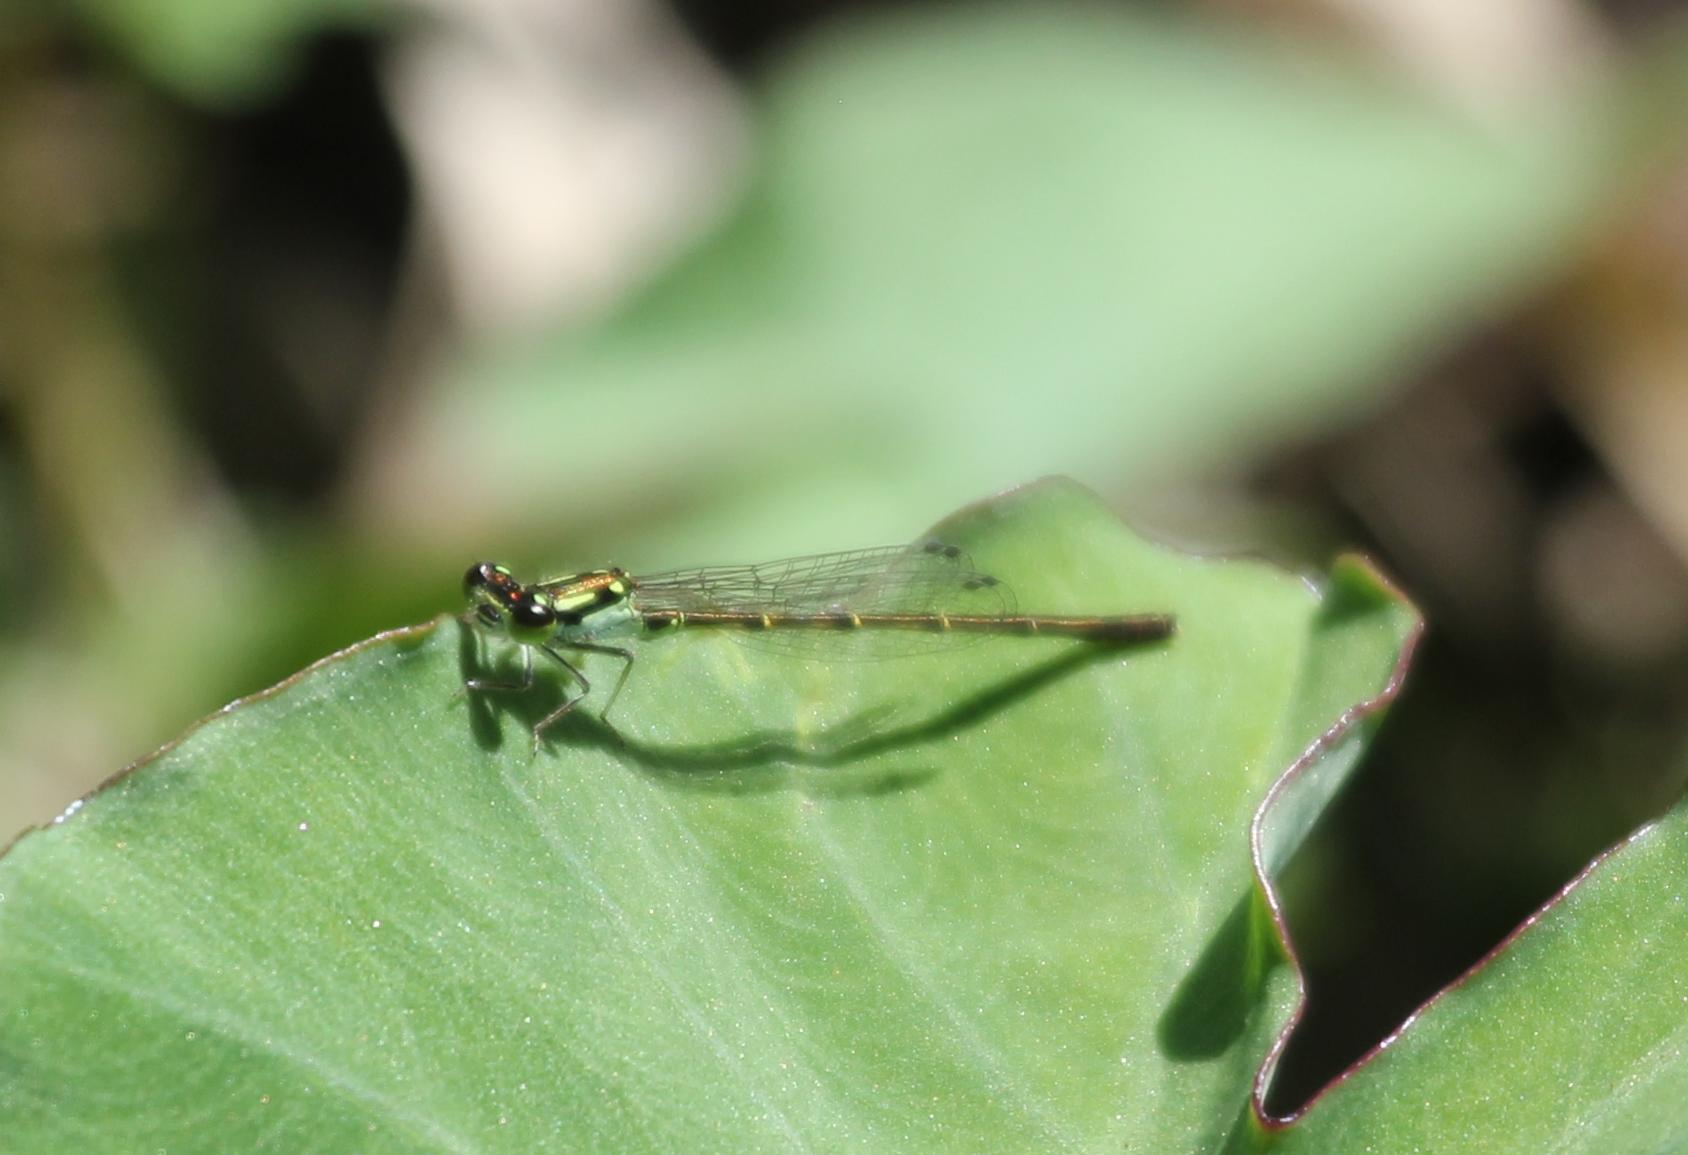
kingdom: Animalia
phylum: Arthropoda
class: Insecta
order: Odonata
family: Coenagrionidae
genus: Ischnura
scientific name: Ischnura posita
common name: Fragile forktail
